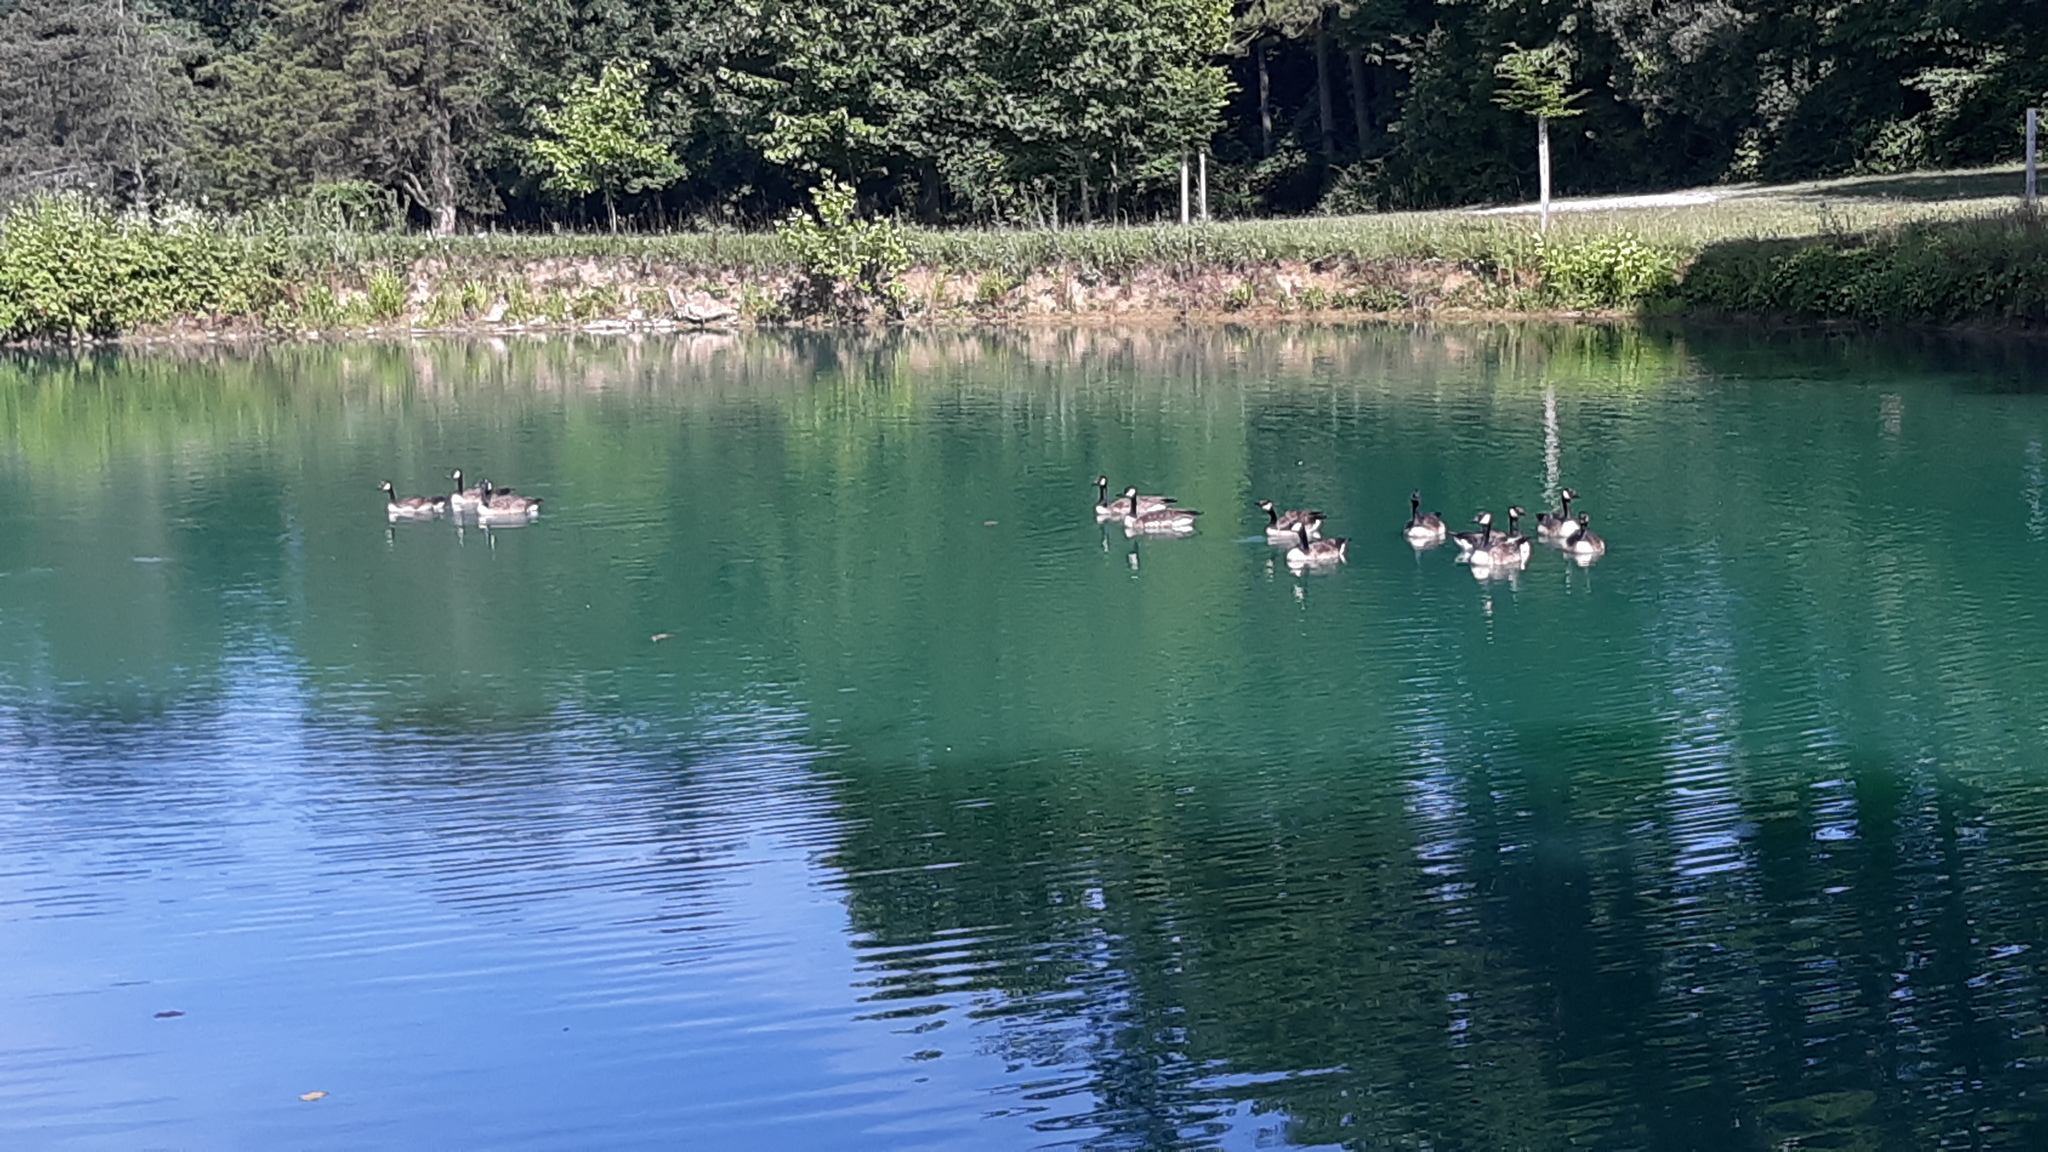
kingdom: Animalia
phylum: Chordata
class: Aves
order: Anseriformes
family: Anatidae
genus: Branta
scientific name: Branta canadensis
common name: Canada goose
